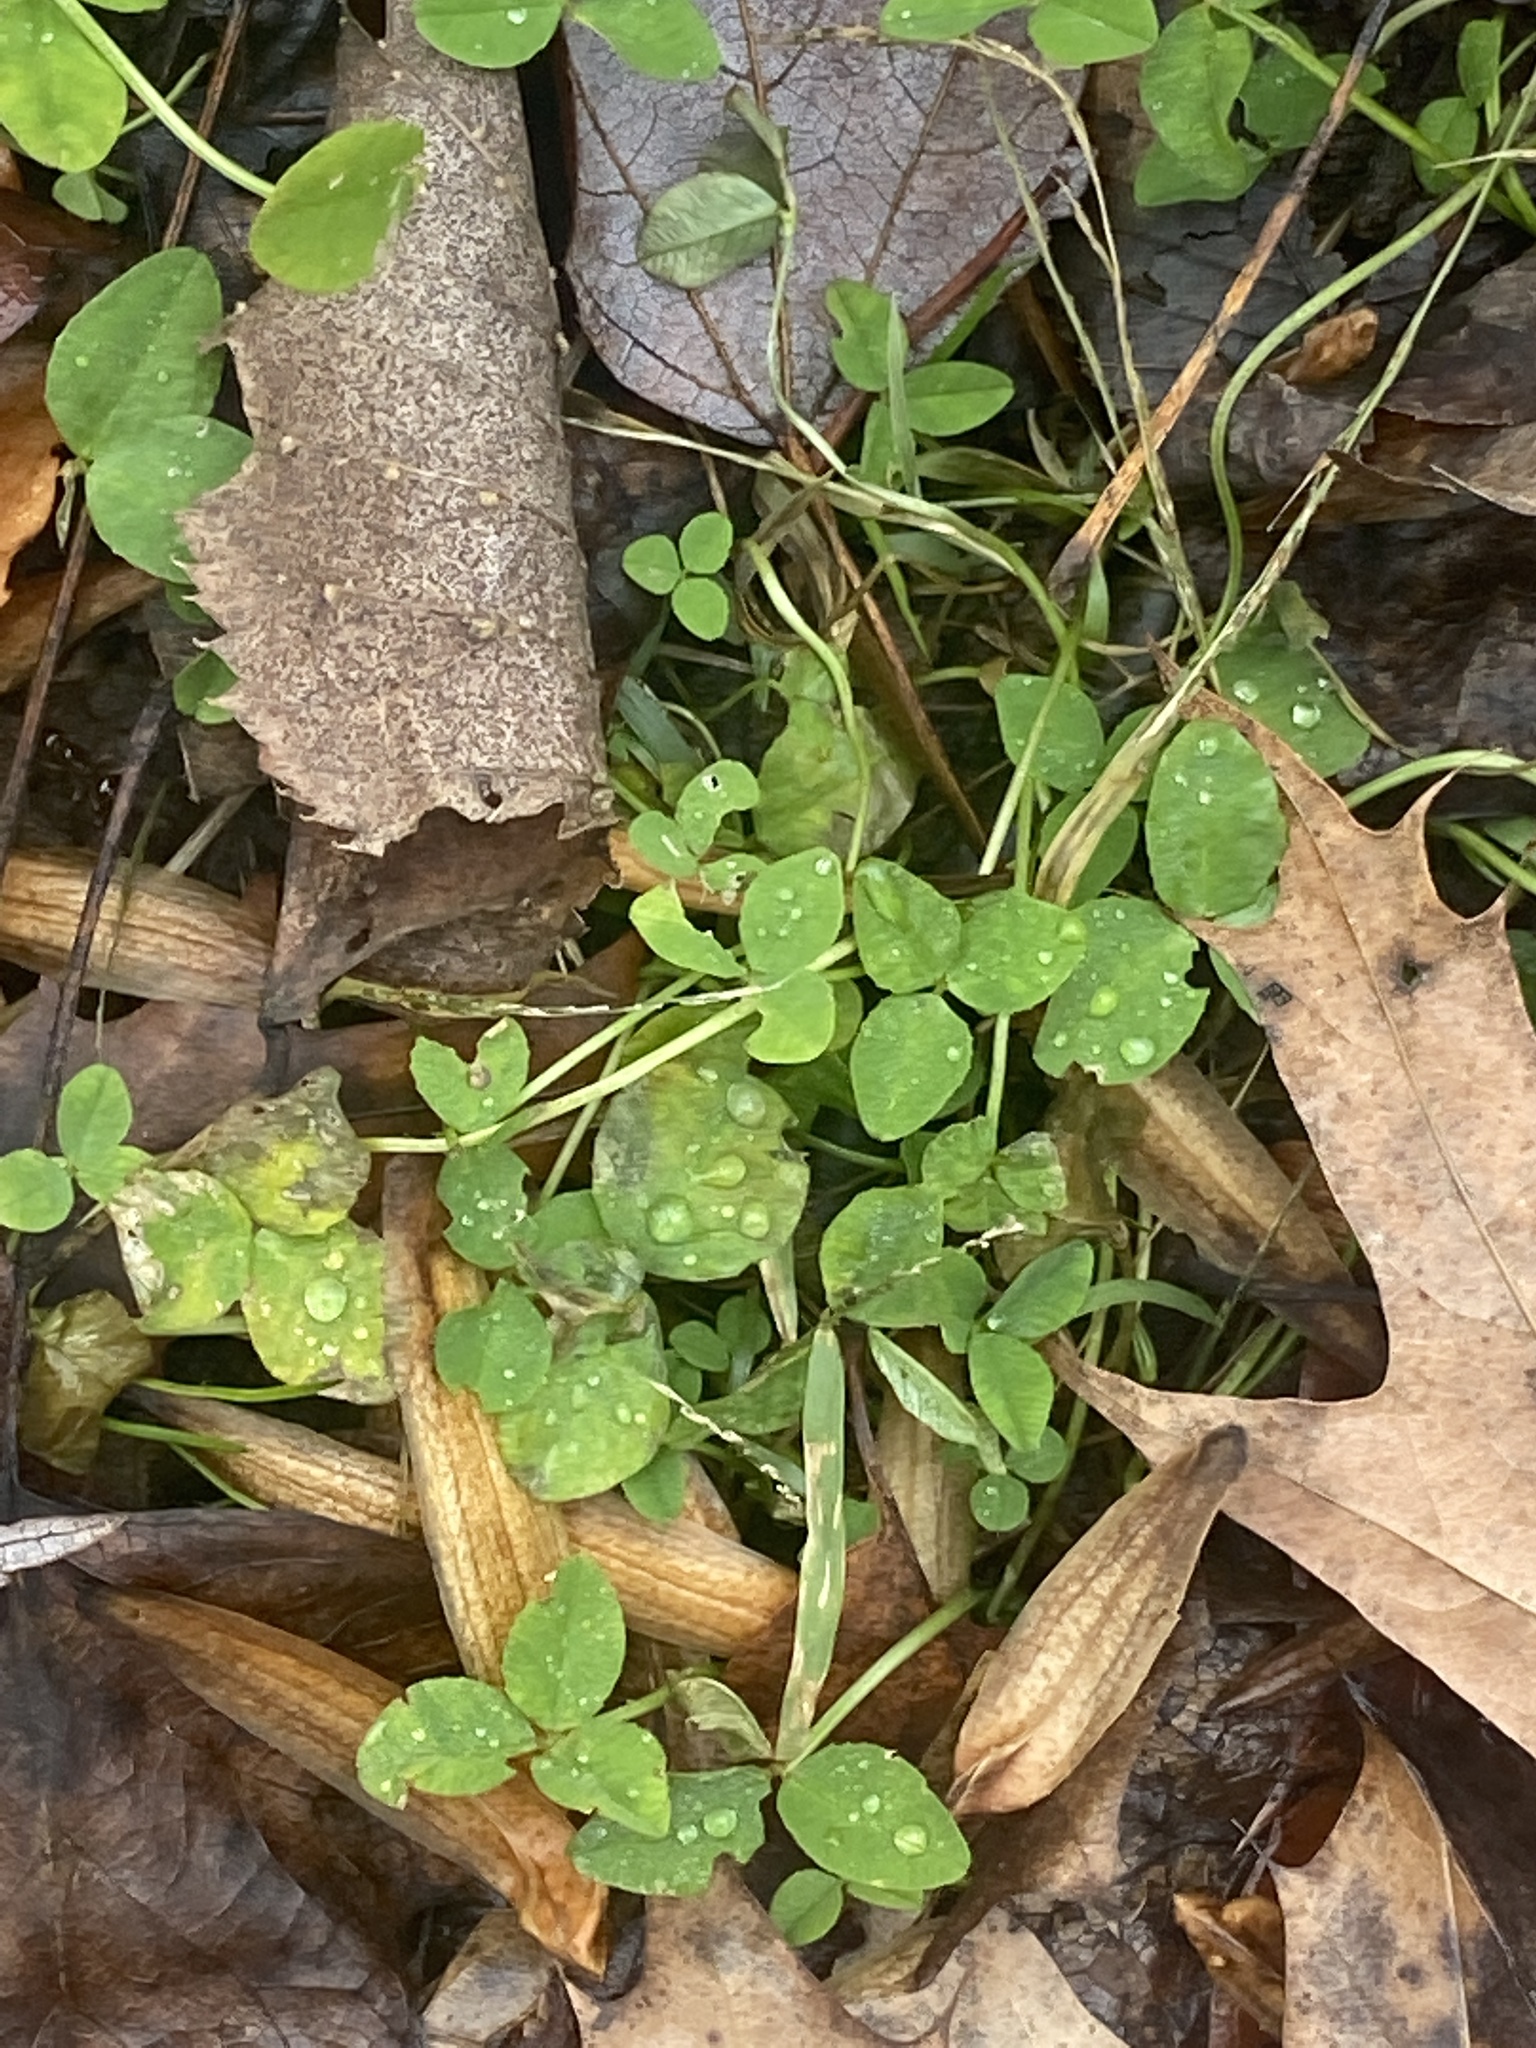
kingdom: Plantae
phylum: Tracheophyta
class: Magnoliopsida
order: Fabales
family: Fabaceae
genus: Trifolium
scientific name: Trifolium repens
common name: White clover
